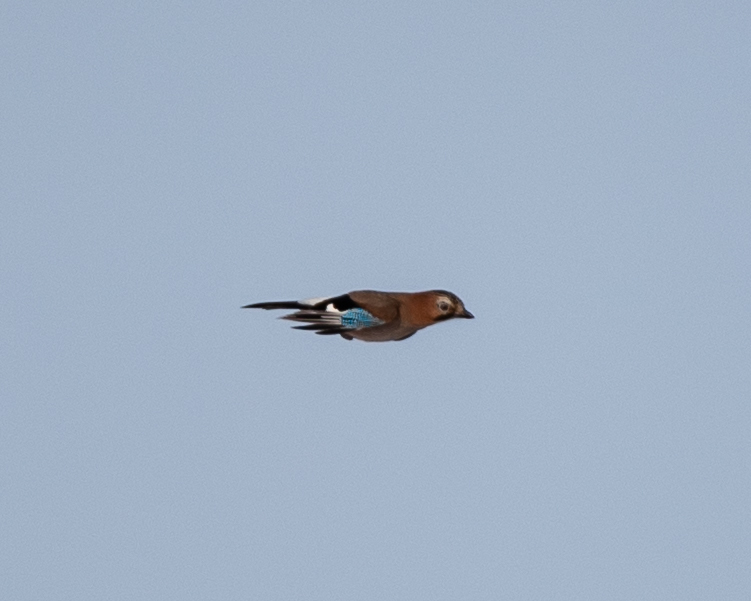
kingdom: Animalia
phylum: Chordata
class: Aves
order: Passeriformes
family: Corvidae
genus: Garrulus
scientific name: Garrulus glandarius
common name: Eurasian jay
